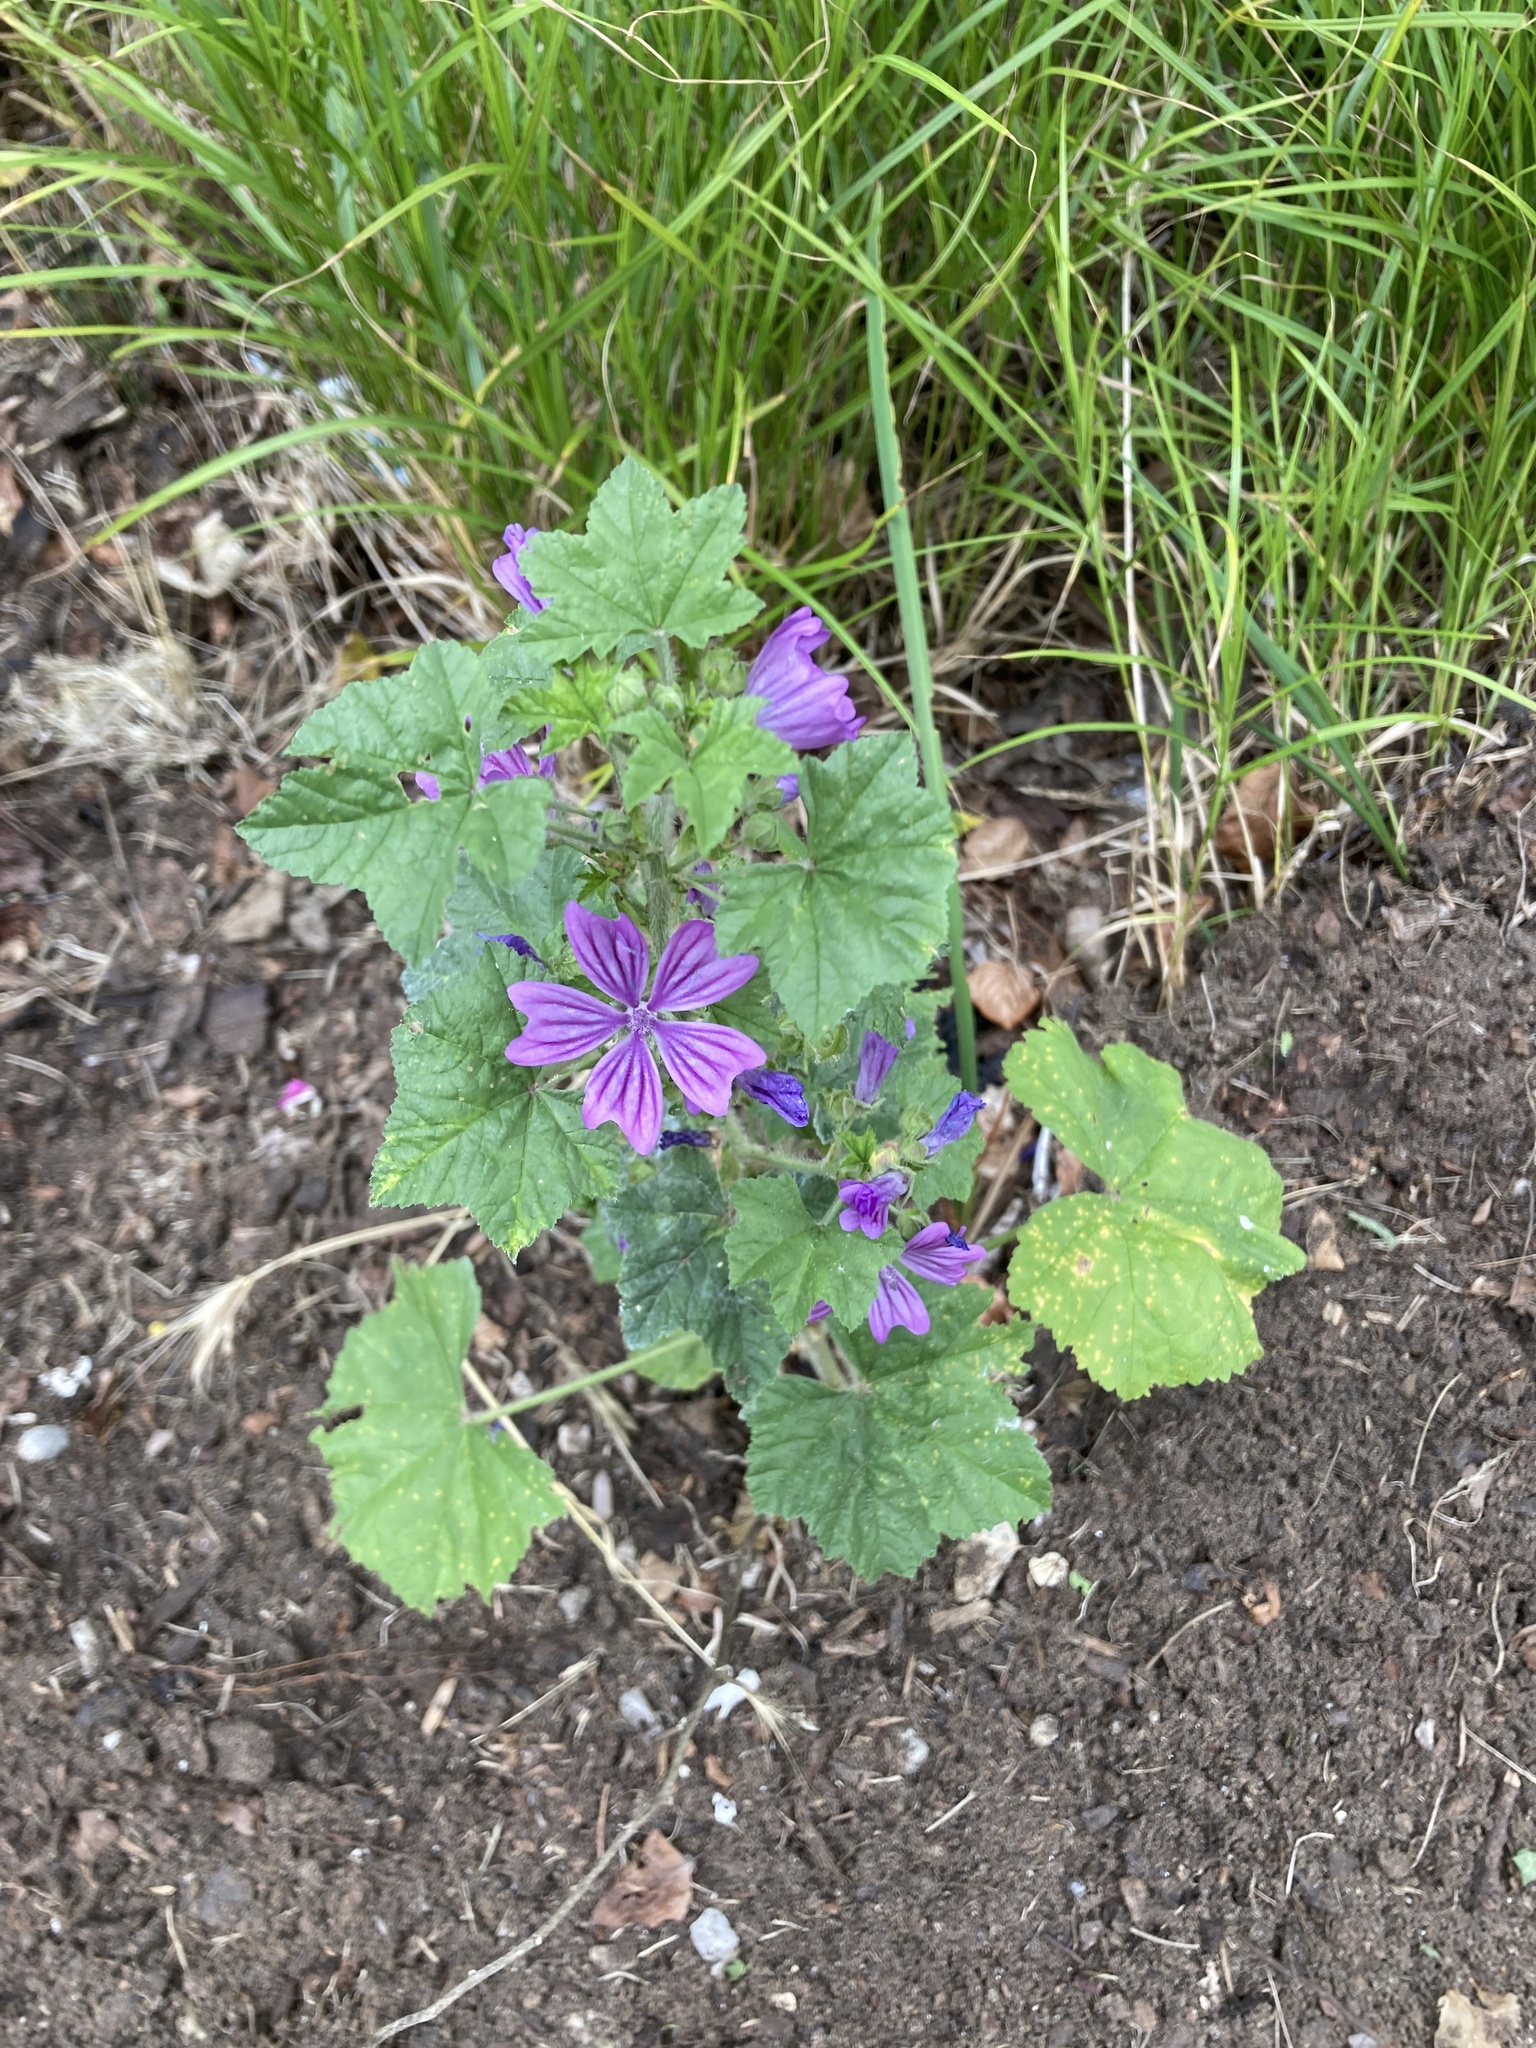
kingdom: Plantae
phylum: Tracheophyta
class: Magnoliopsida
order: Malvales
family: Malvaceae
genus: Malva
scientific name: Malva sylvestris
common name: Common mallow
